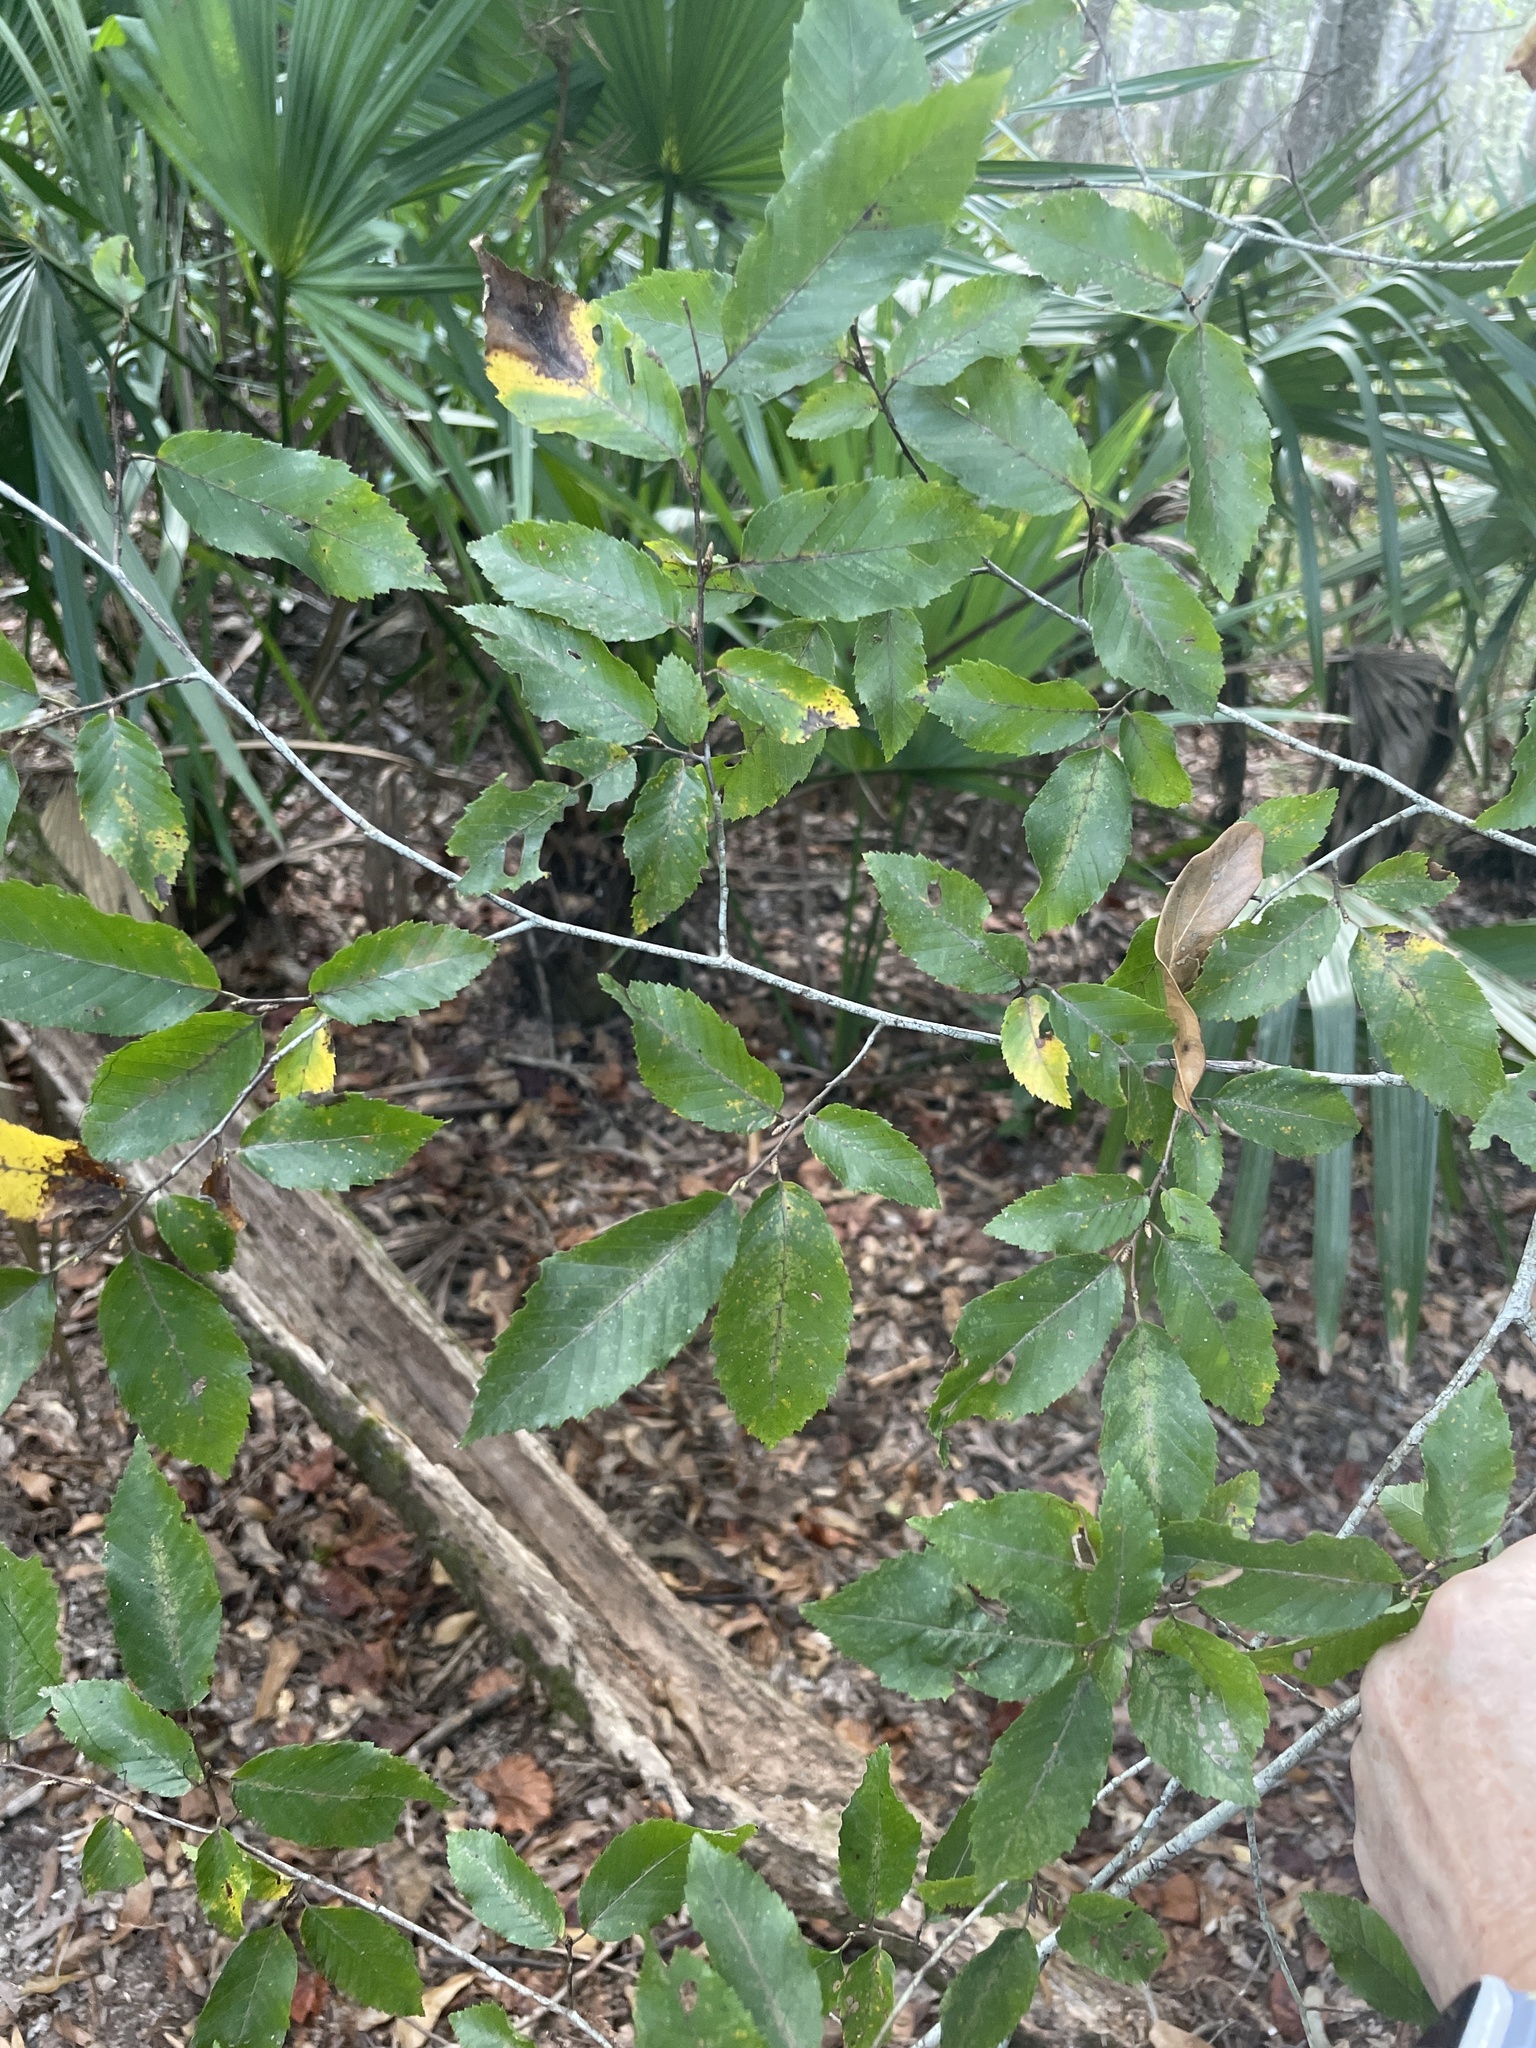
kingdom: Plantae
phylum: Tracheophyta
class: Magnoliopsida
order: Rosales
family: Ulmaceae
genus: Planera
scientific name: Planera aquatica
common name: Water-elm
